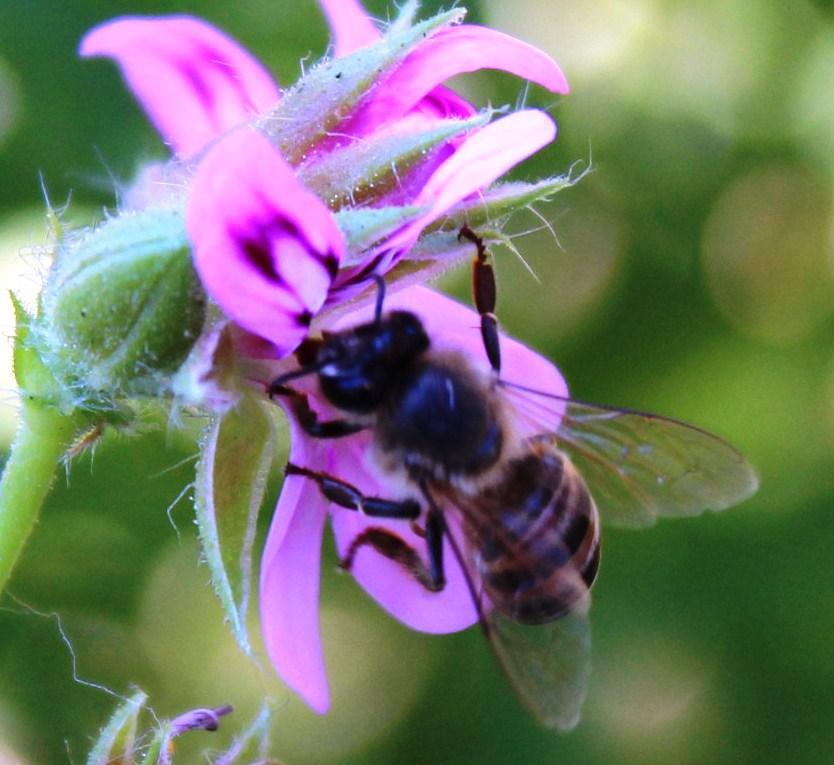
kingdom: Animalia
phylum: Arthropoda
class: Insecta
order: Hymenoptera
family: Apidae
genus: Apis
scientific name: Apis mellifera
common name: Honey bee
